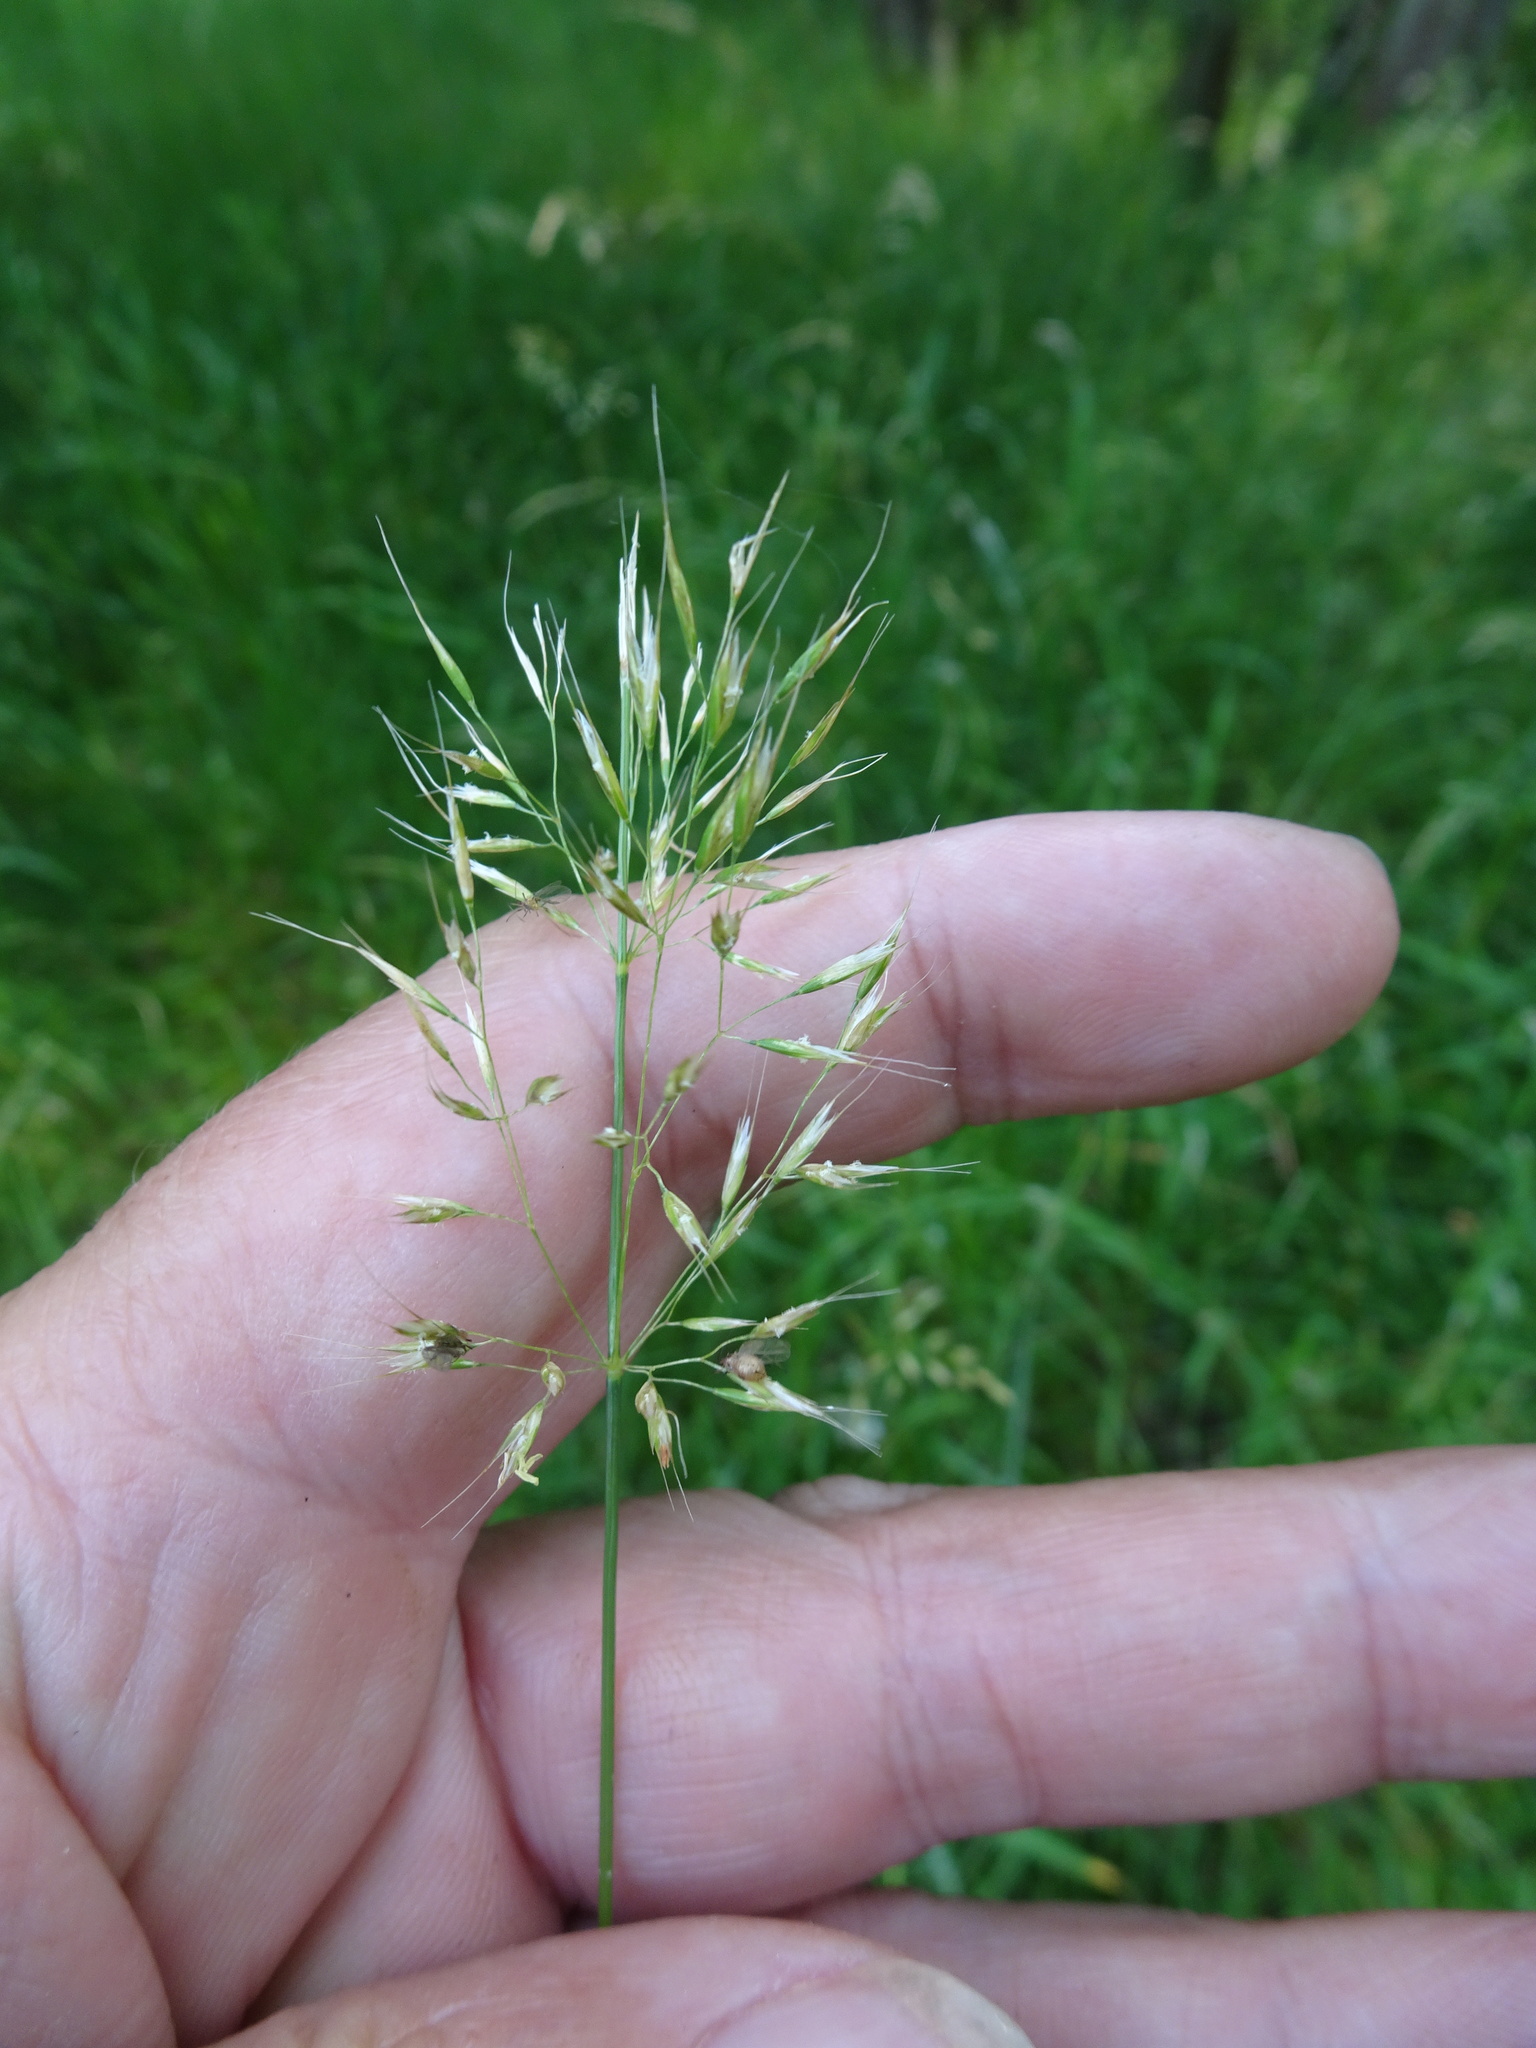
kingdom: Plantae
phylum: Tracheophyta
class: Liliopsida
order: Poales
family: Poaceae
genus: Trisetum
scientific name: Trisetum flavescens
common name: Yellow oat-grass
